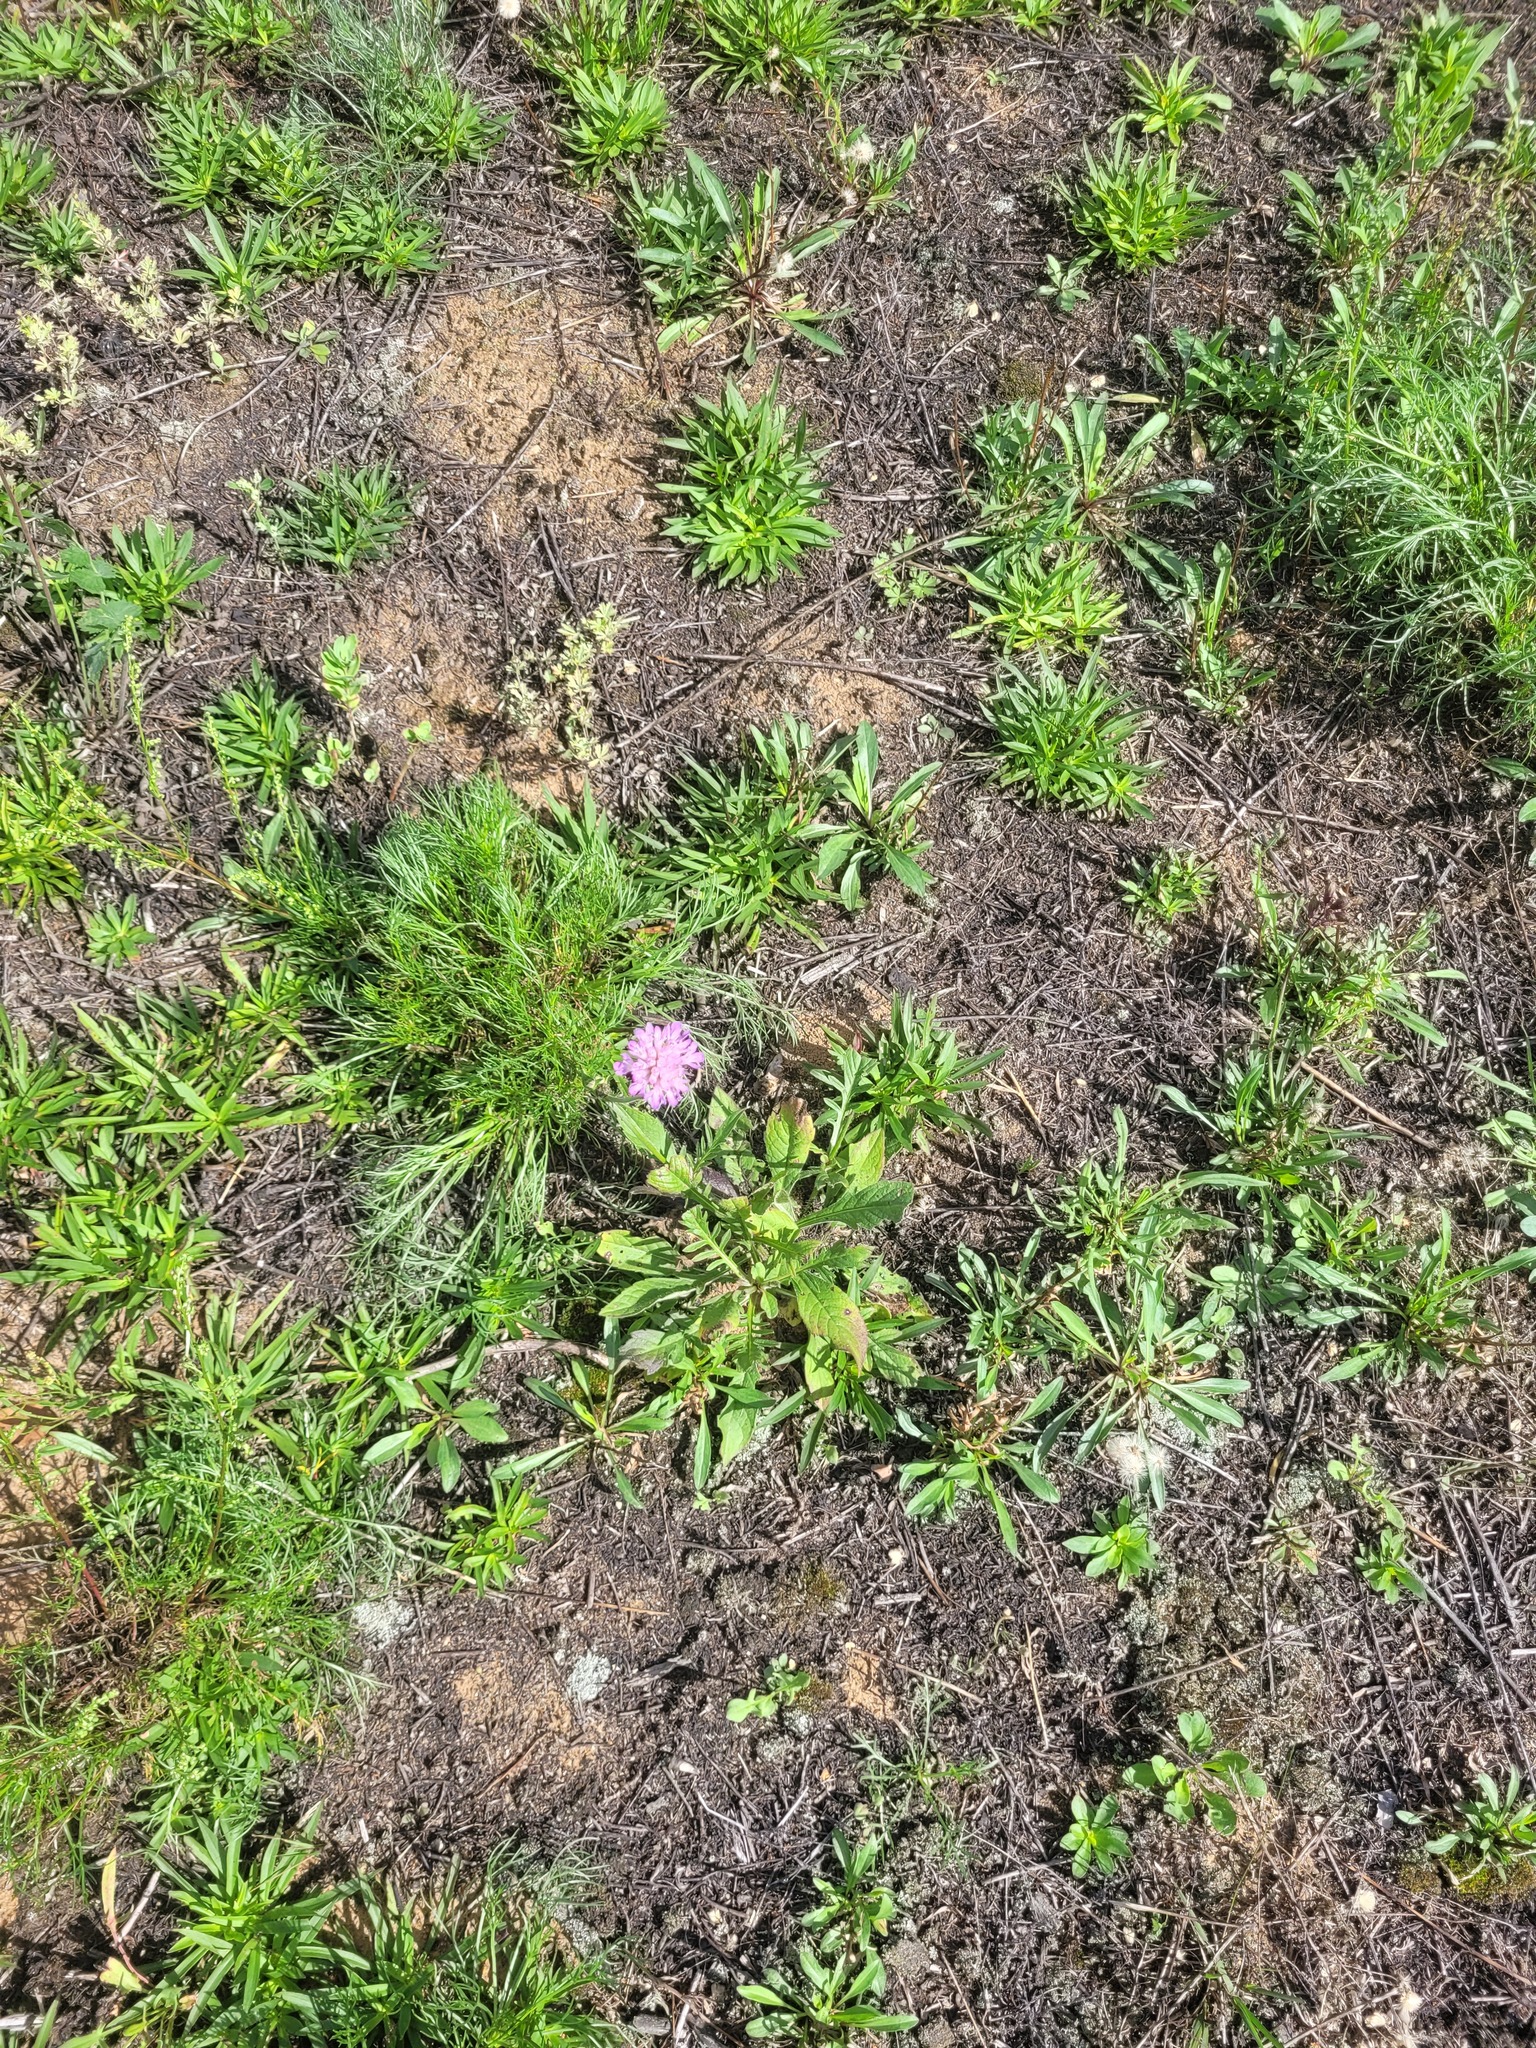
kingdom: Plantae
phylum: Tracheophyta
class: Magnoliopsida
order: Dipsacales
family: Caprifoliaceae
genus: Knautia
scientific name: Knautia arvensis
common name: Field scabiosa
